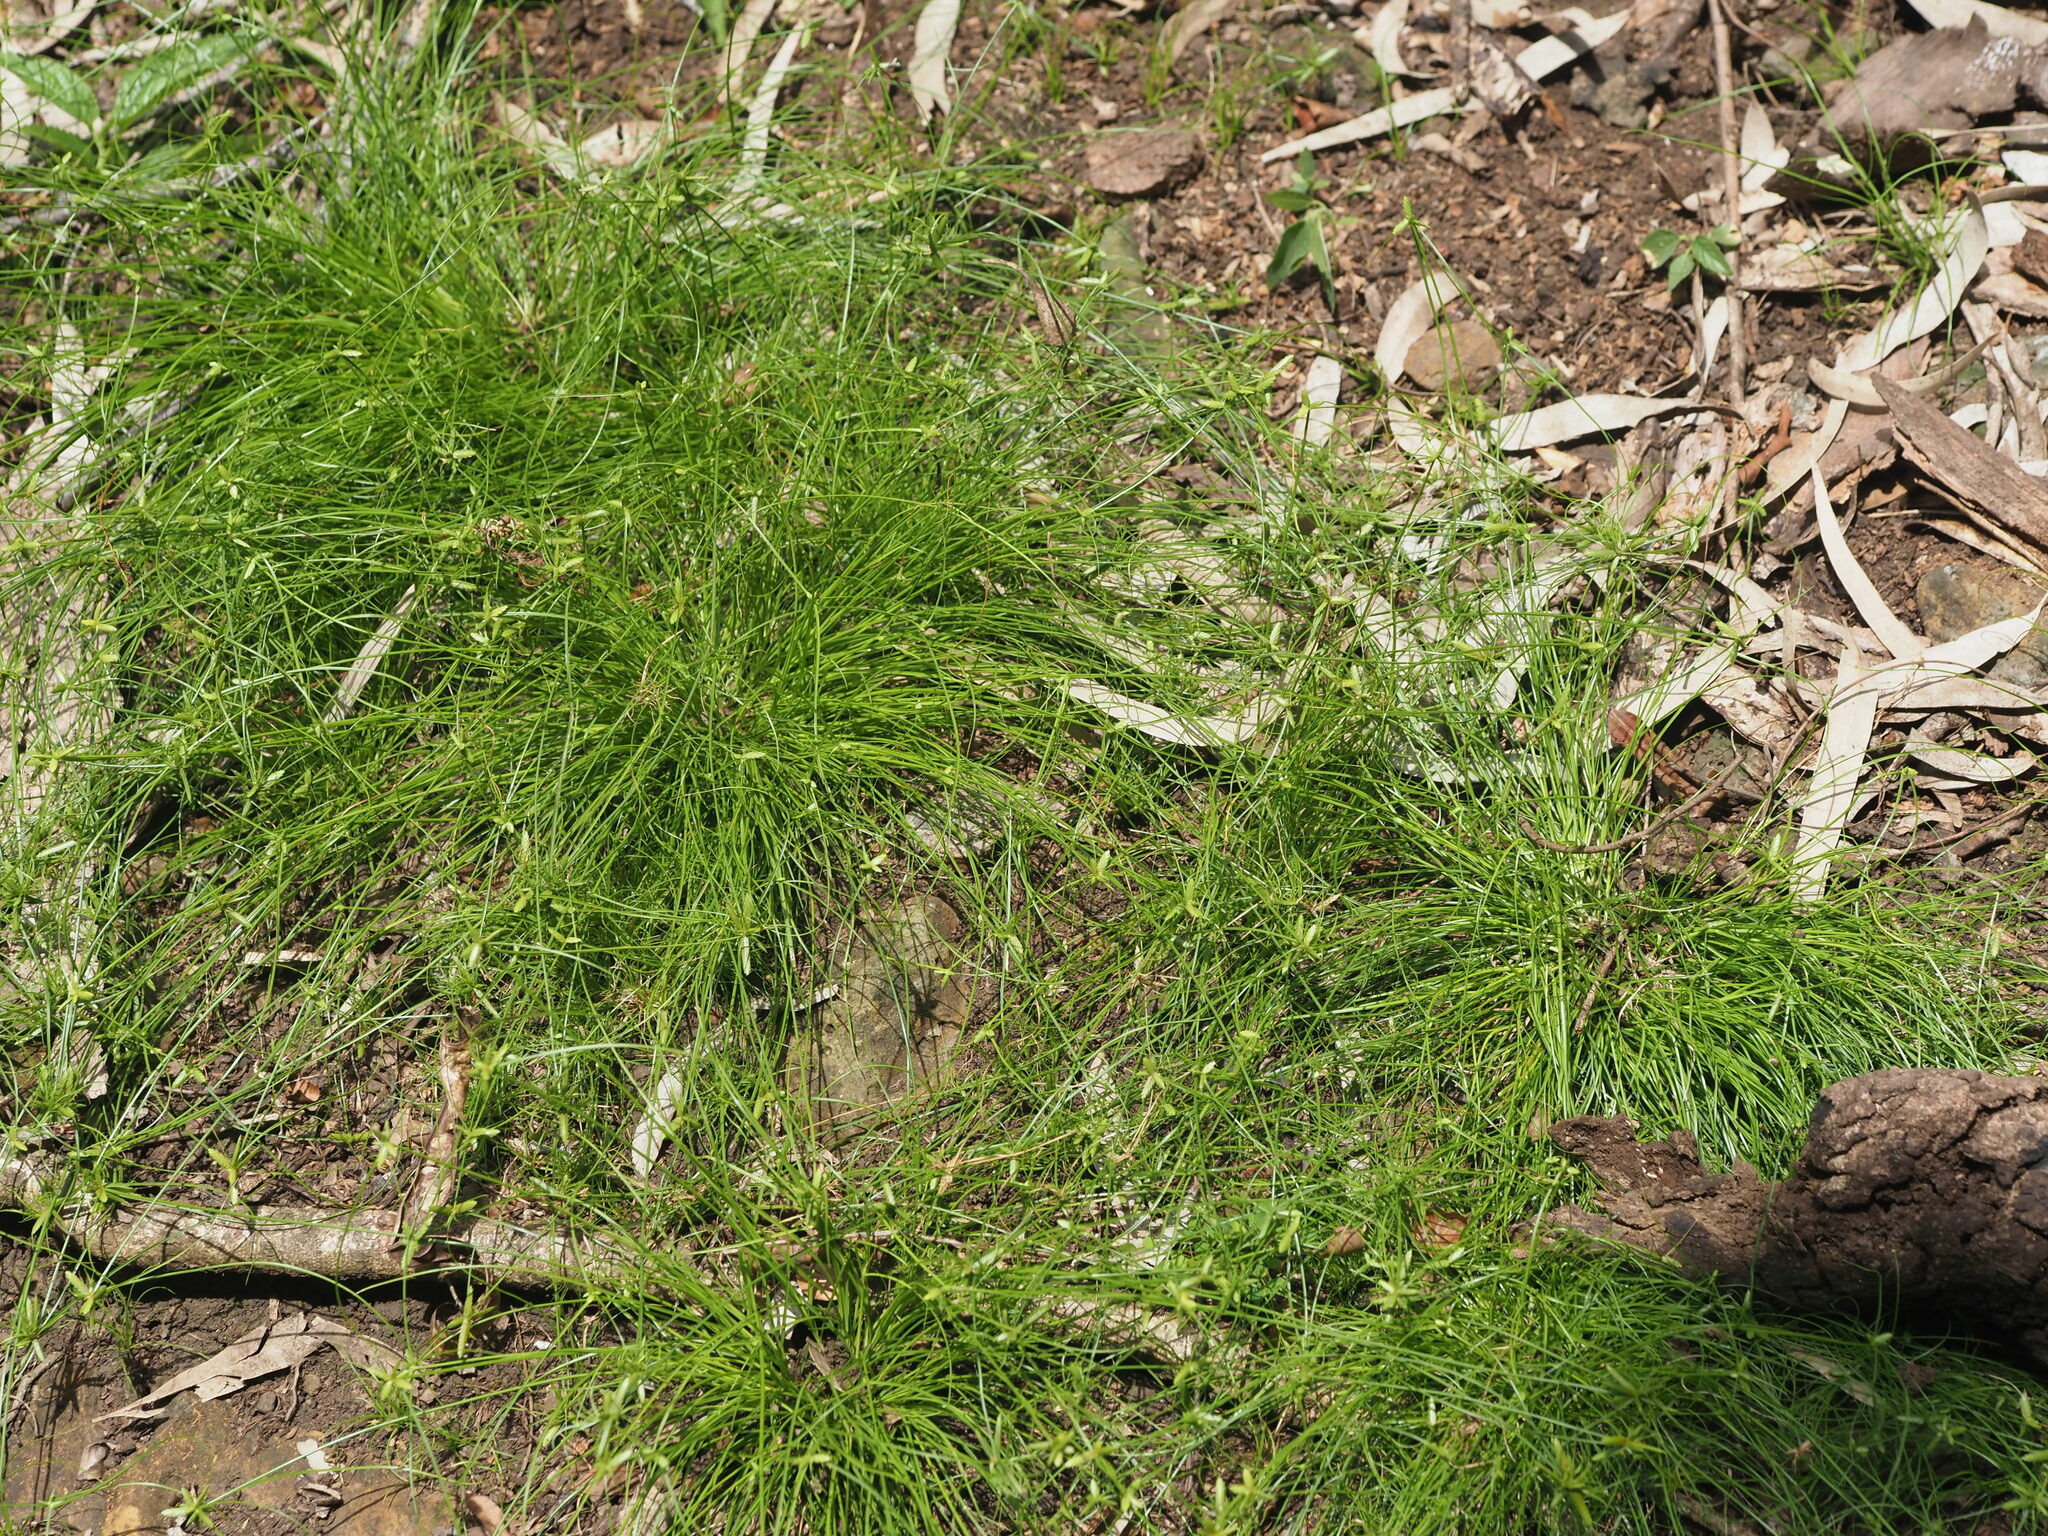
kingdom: Plantae
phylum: Tracheophyta
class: Liliopsida
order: Poales
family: Cyperaceae
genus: Cyperus
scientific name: Cyperus gracilis
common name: Slimjim flatsedge
